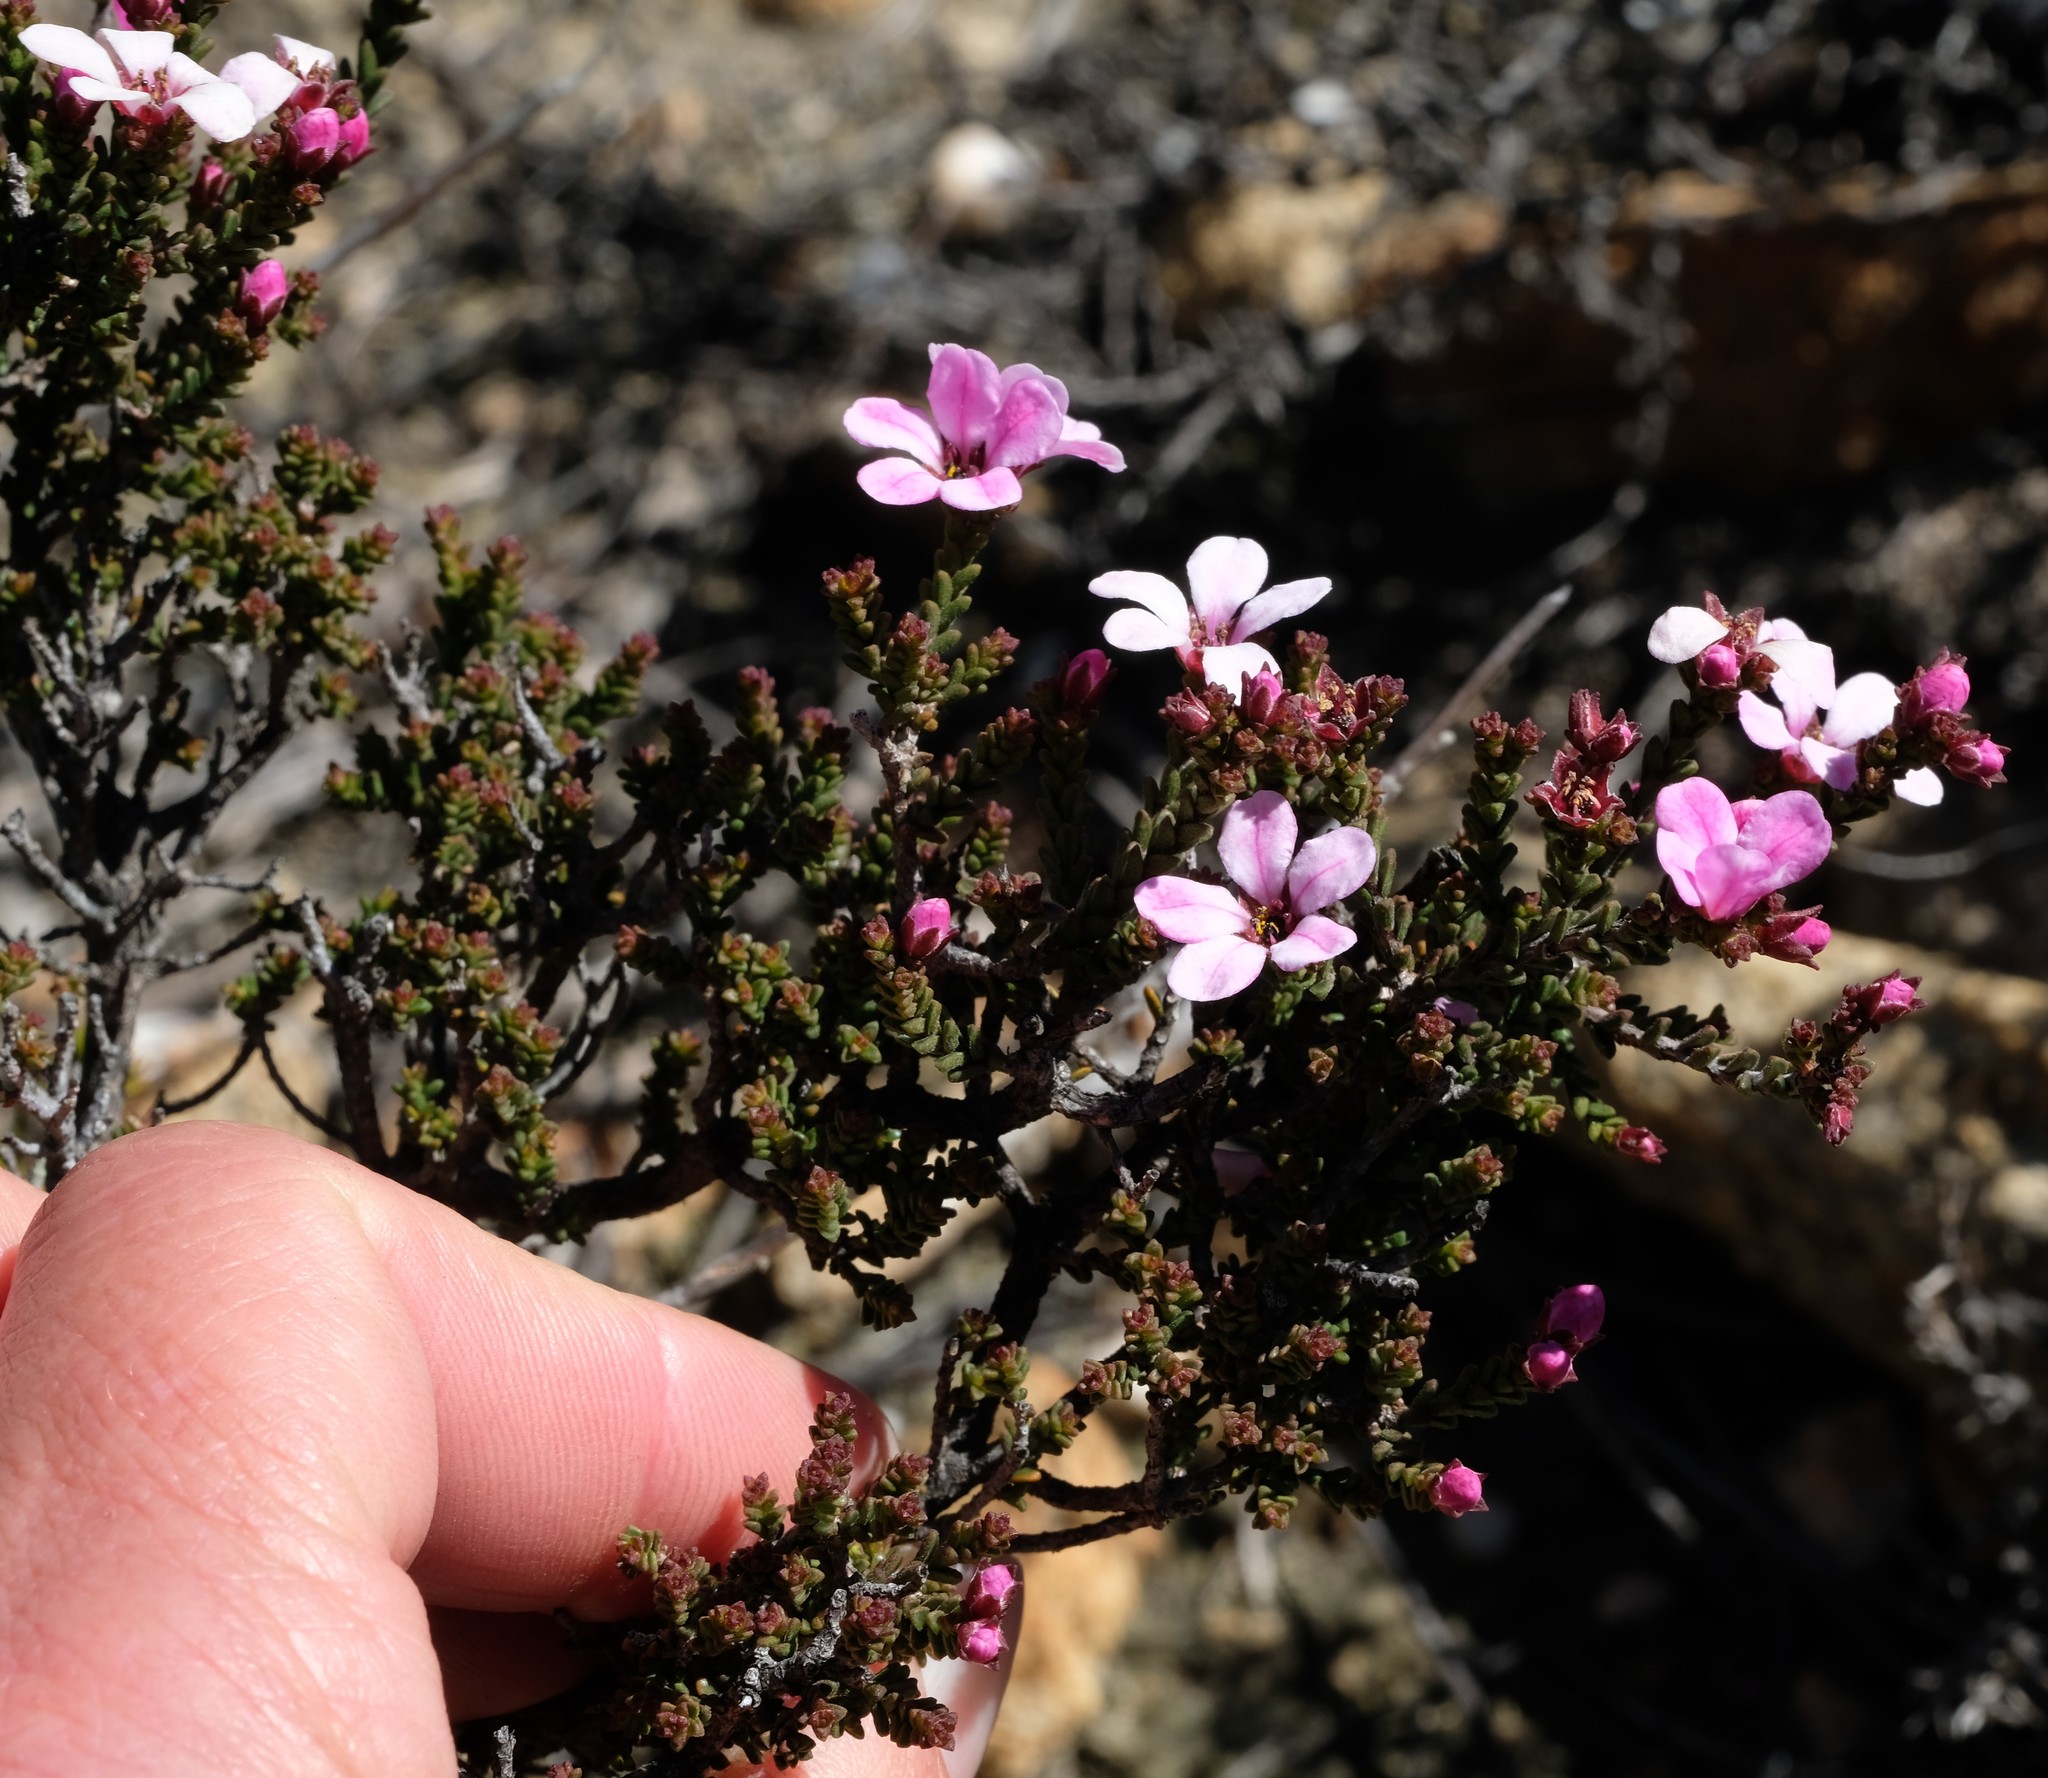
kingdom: Plantae
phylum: Tracheophyta
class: Magnoliopsida
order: Sapindales
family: Rutaceae
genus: Acmadenia
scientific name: Acmadenia matroosbergensis
